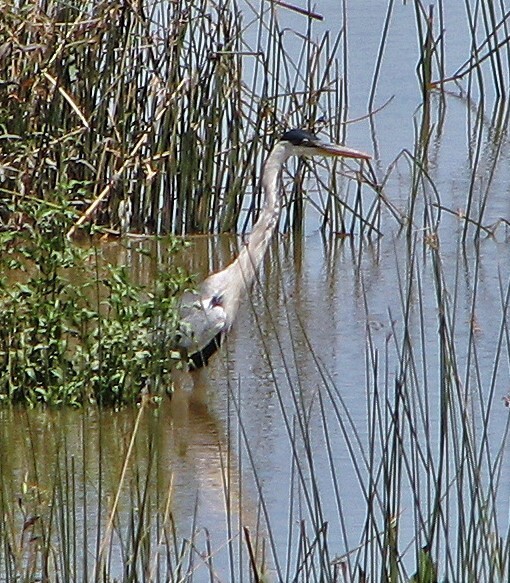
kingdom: Animalia
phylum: Chordata
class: Aves
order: Pelecaniformes
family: Ardeidae
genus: Ardea
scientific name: Ardea cocoi
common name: Cocoi heron
